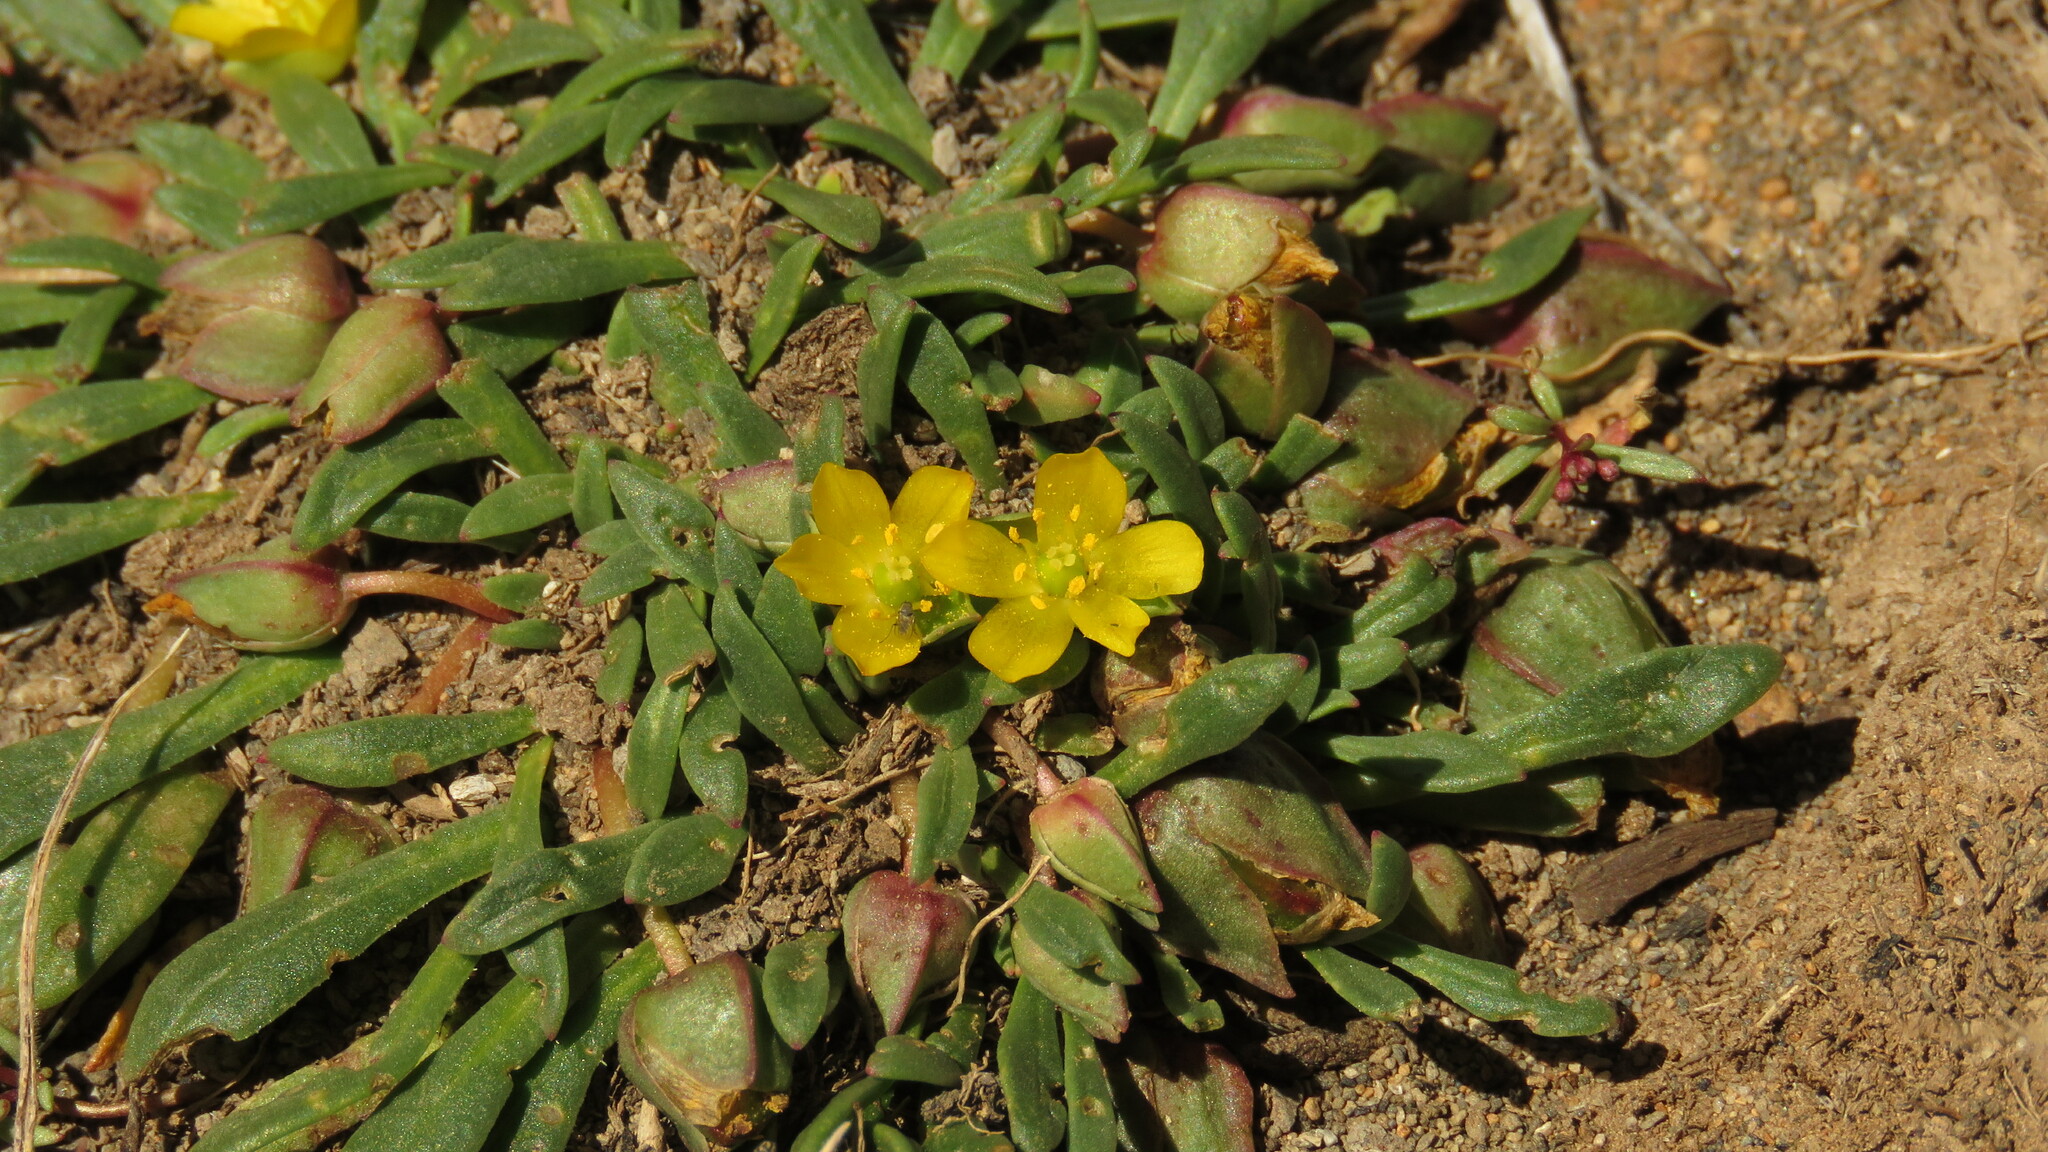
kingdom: Plantae
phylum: Tracheophyta
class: Magnoliopsida
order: Caryophyllales
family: Montiaceae
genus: Calandrinia
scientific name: Calandrinia ranunculina
